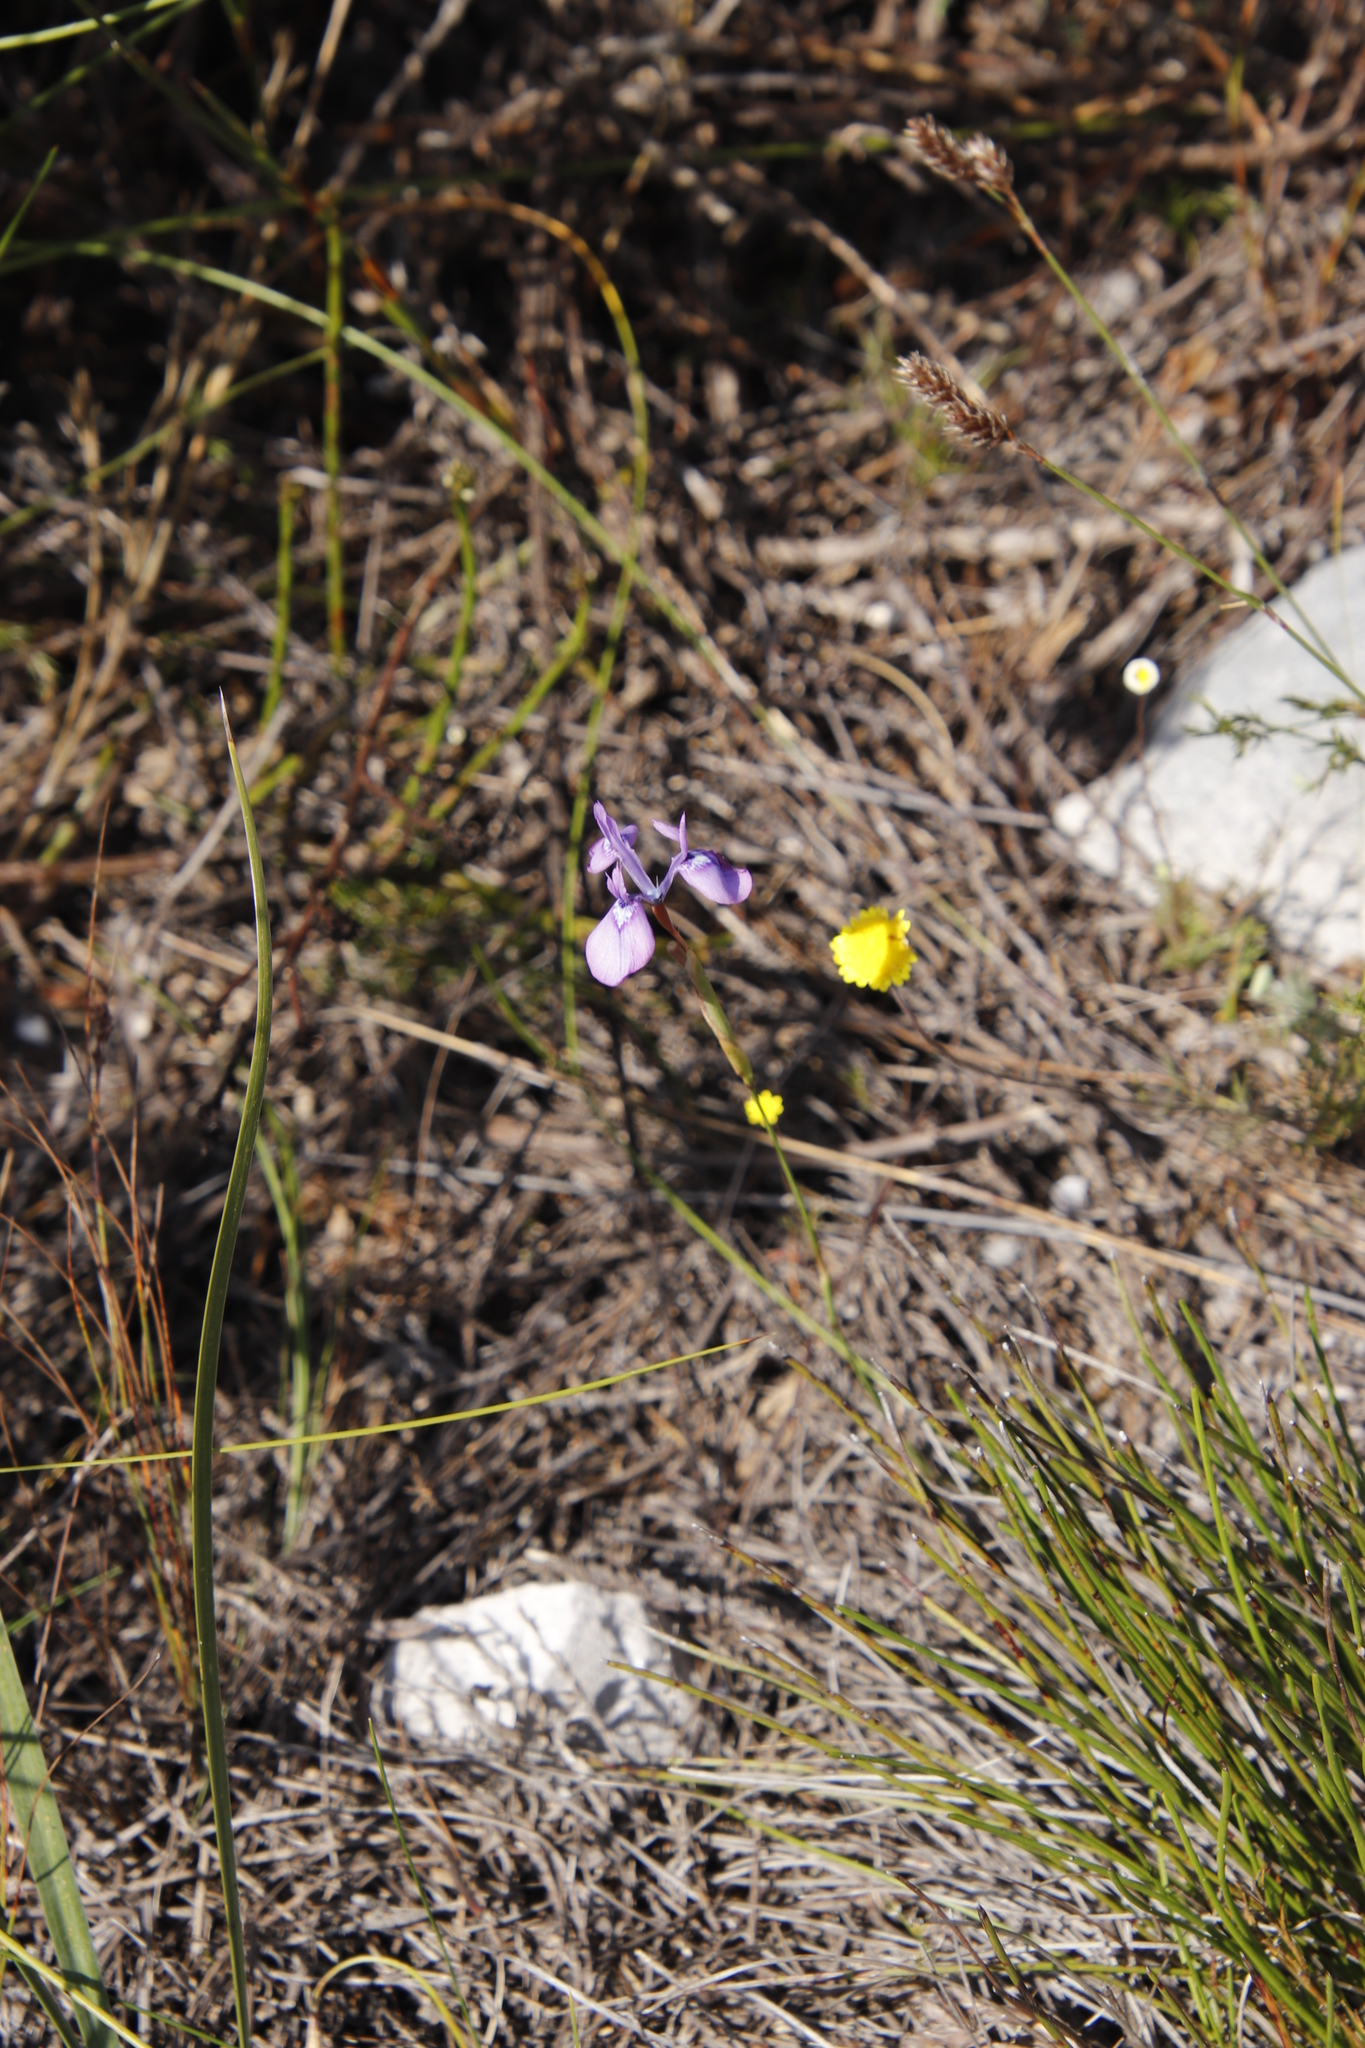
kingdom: Plantae
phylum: Tracheophyta
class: Liliopsida
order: Asparagales
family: Iridaceae
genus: Moraea
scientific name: Moraea tripetala
